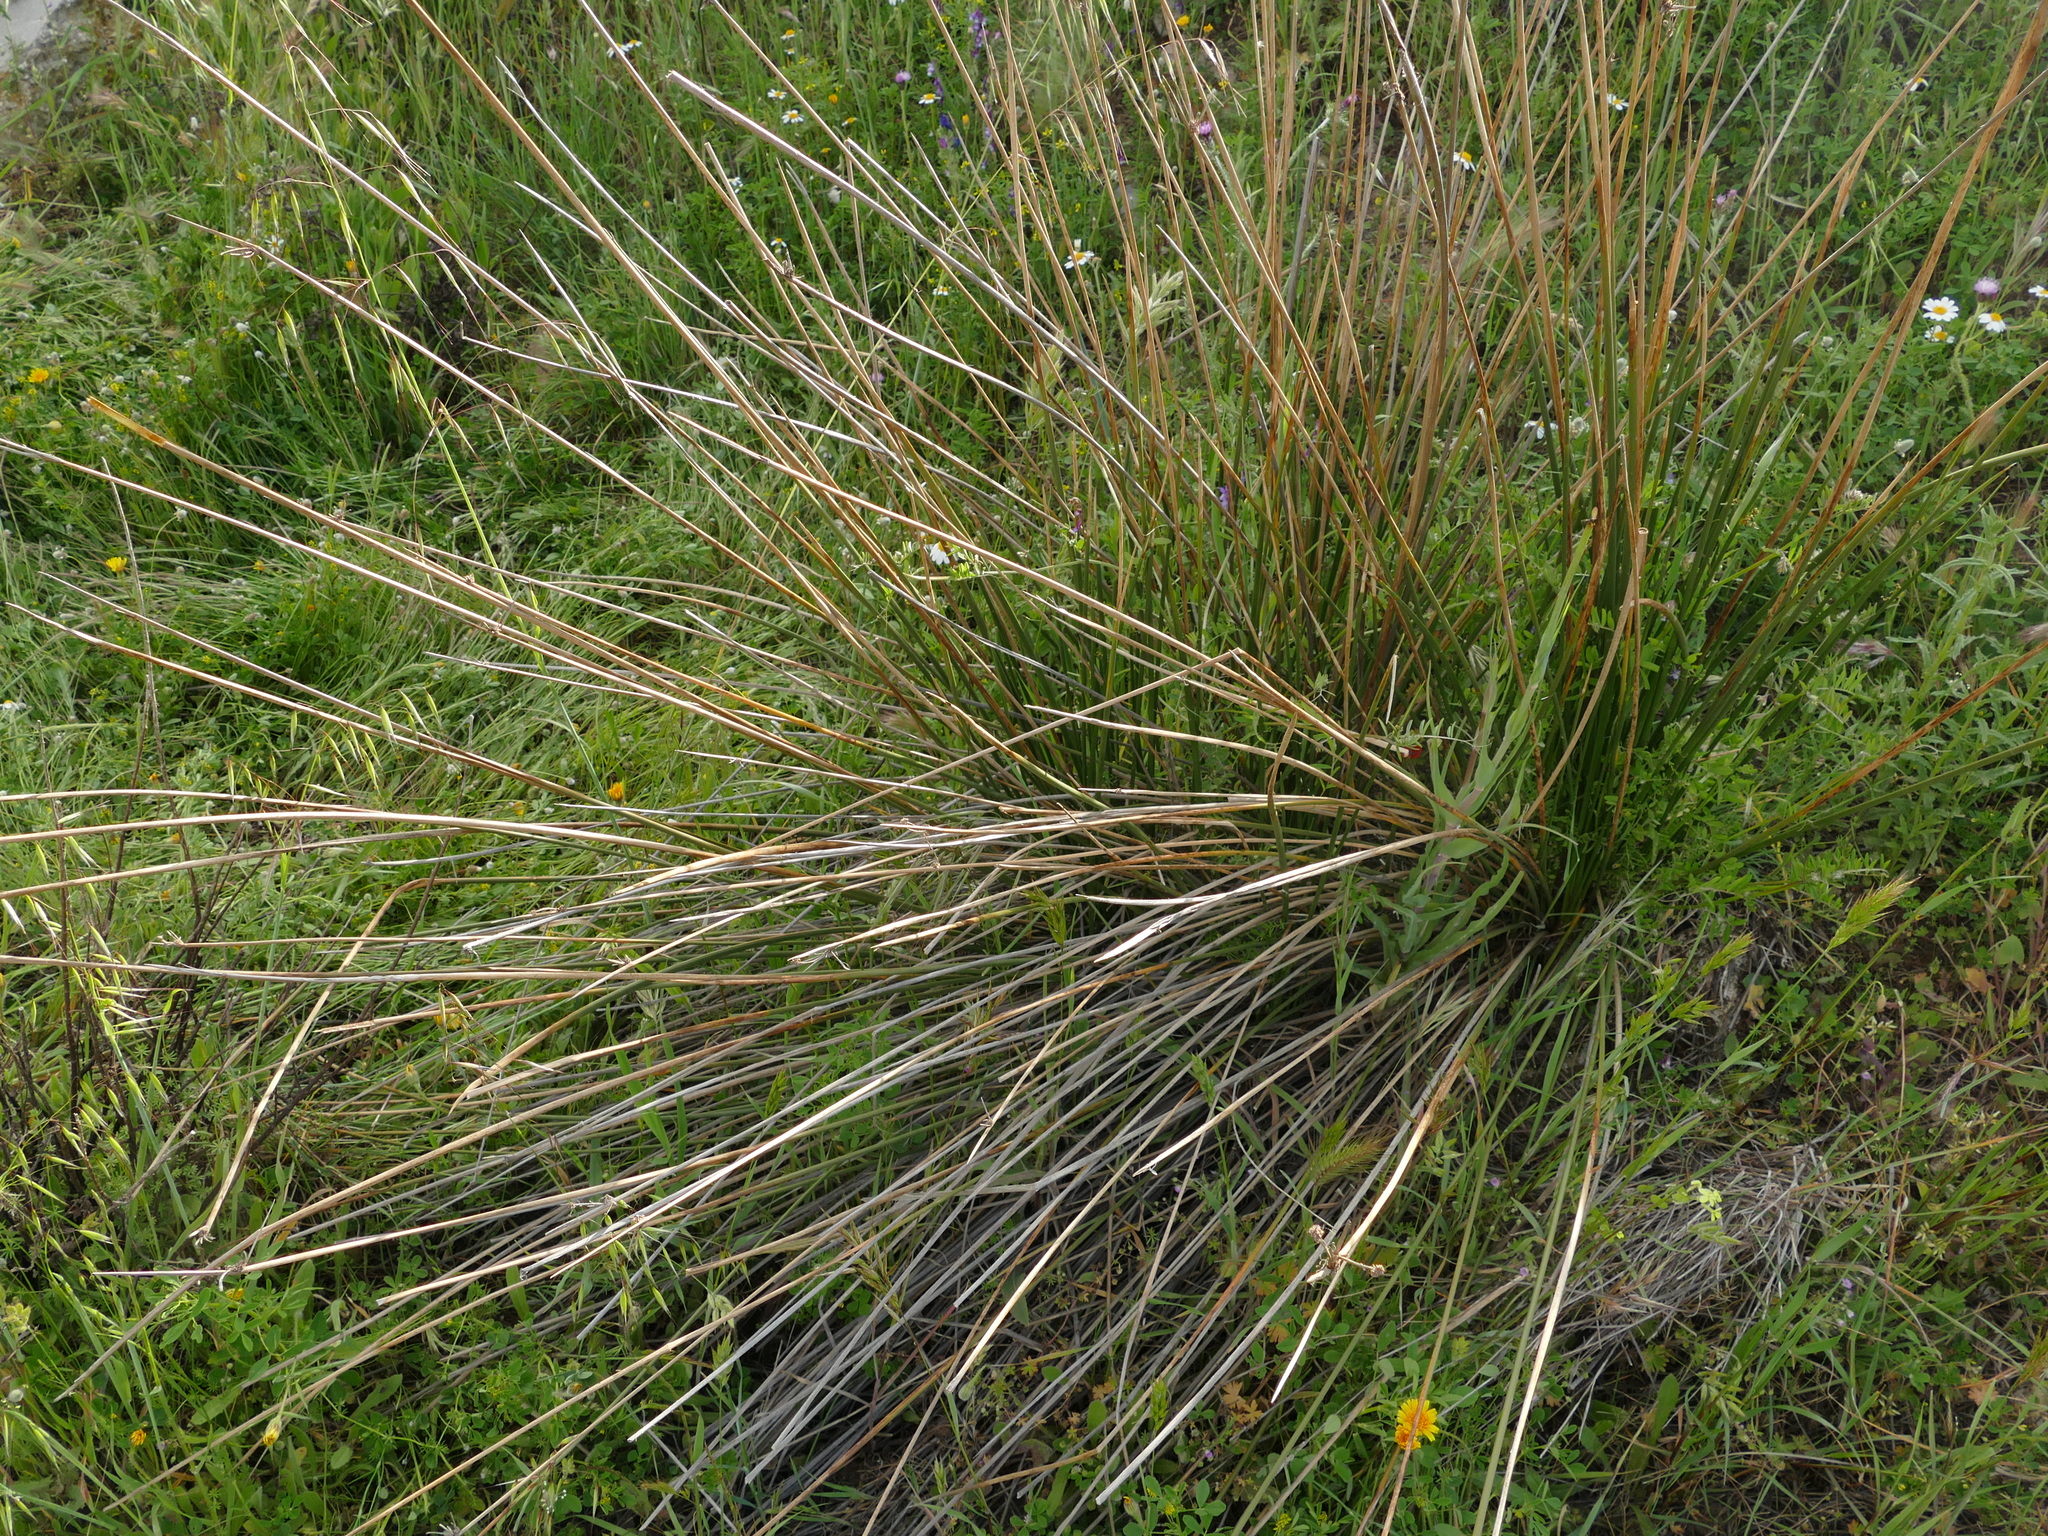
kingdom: Plantae
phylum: Tracheophyta
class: Liliopsida
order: Poales
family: Cyperaceae
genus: Scirpoides
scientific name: Scirpoides holoschoenus
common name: Round-headed club-rush
